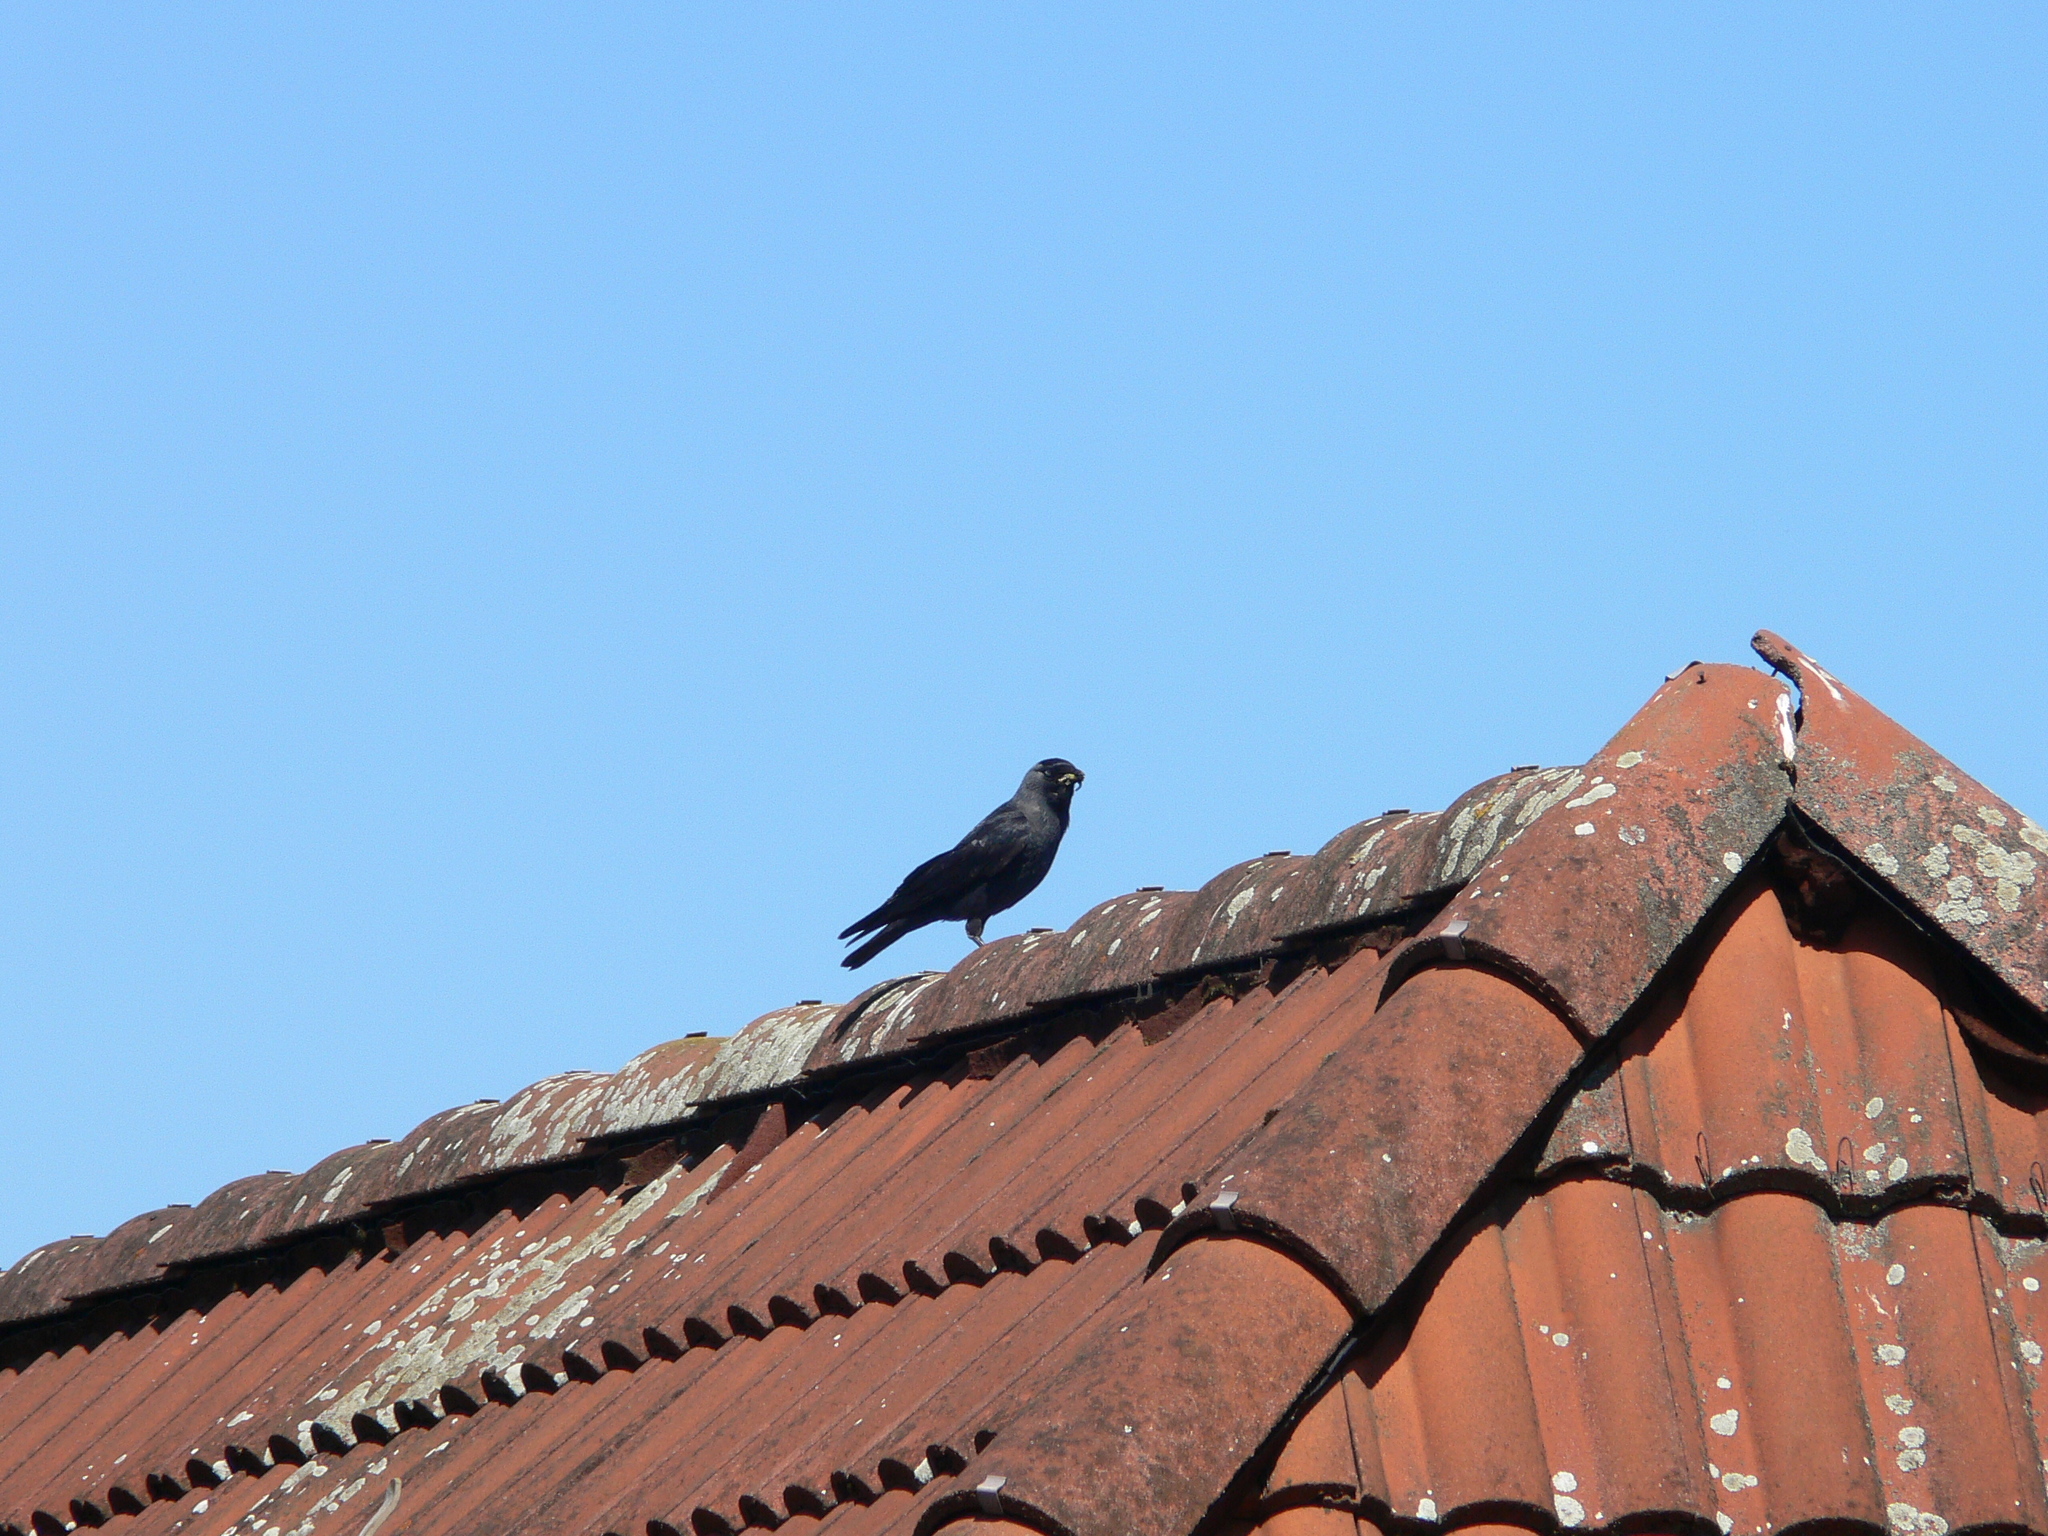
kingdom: Animalia
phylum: Chordata
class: Aves
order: Passeriformes
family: Corvidae
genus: Coloeus
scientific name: Coloeus monedula
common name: Western jackdaw
